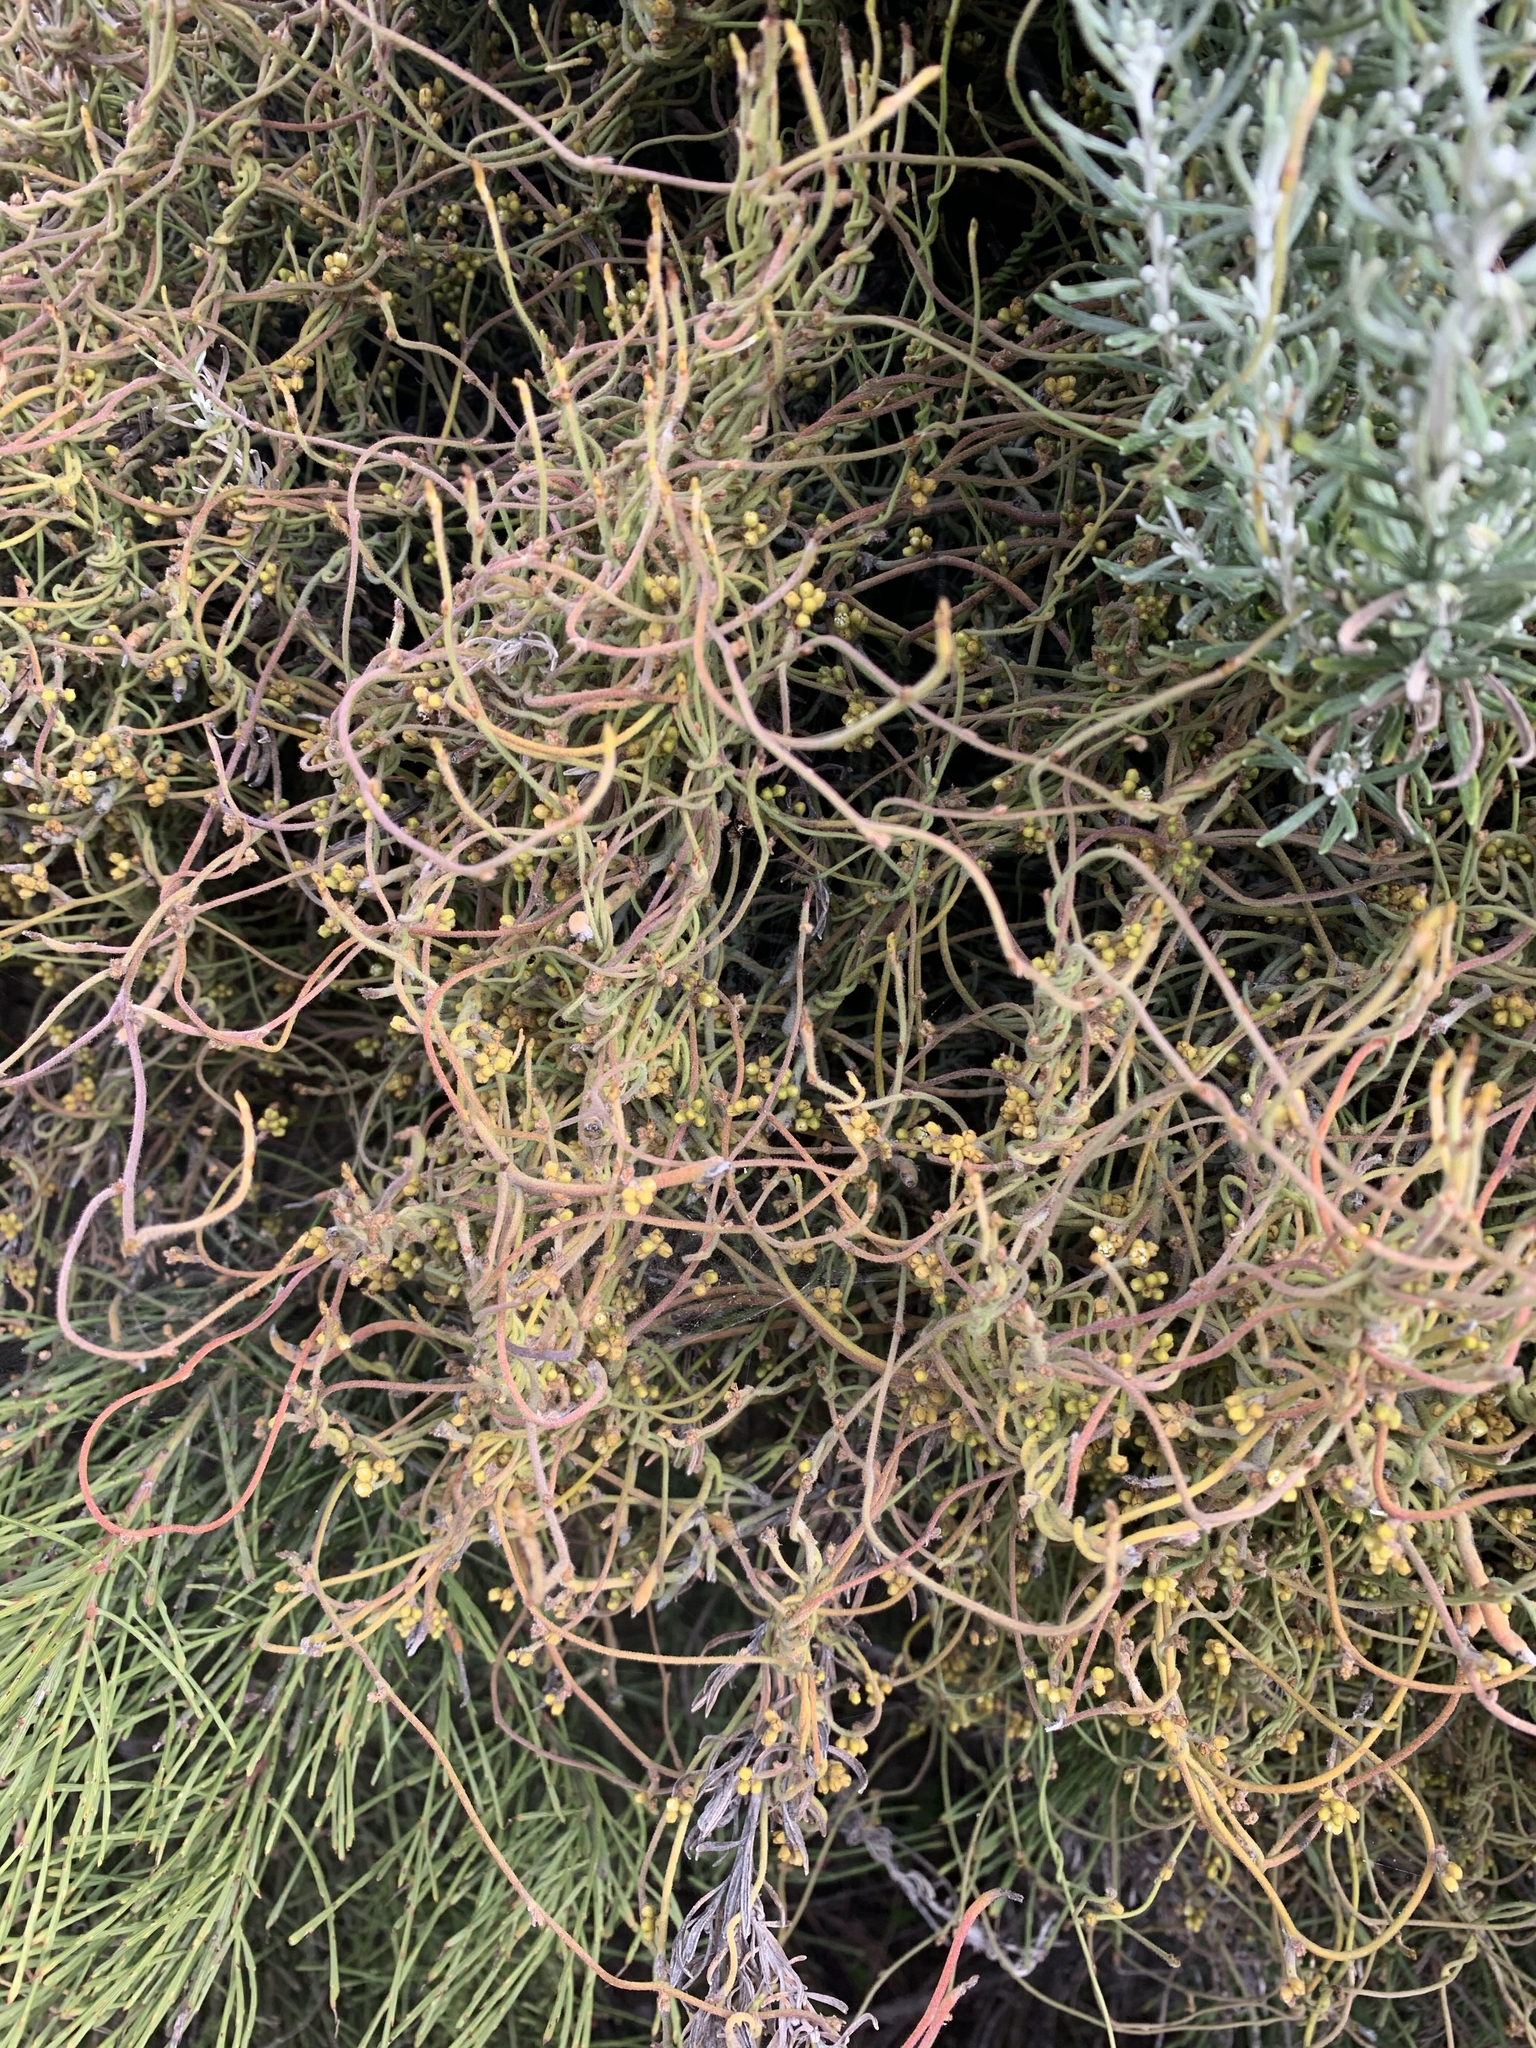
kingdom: Plantae
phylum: Tracheophyta
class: Magnoliopsida
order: Laurales
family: Lauraceae
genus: Cassytha
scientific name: Cassytha pubescens
